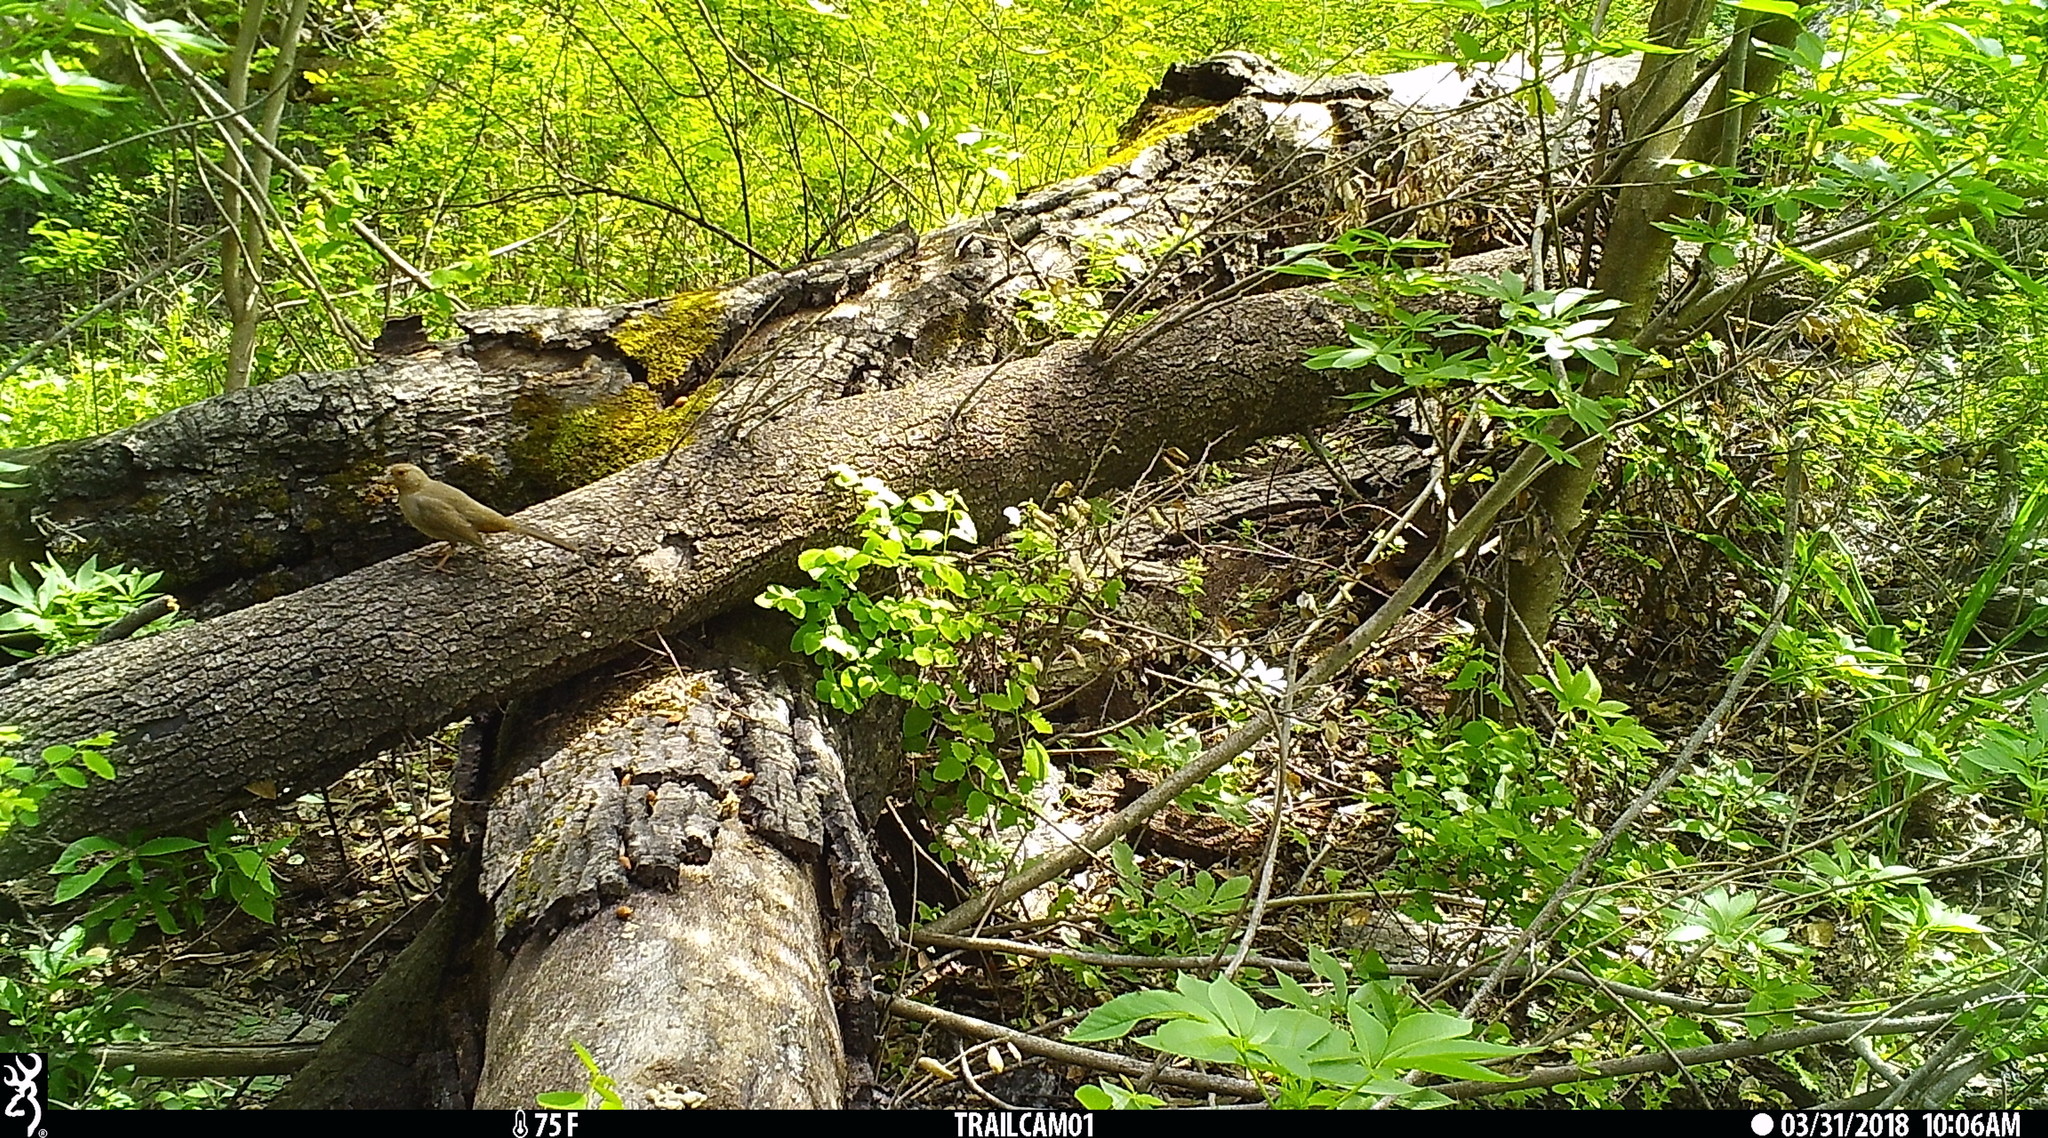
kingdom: Animalia
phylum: Chordata
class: Aves
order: Passeriformes
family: Passerellidae
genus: Melozone
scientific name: Melozone crissalis
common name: California towhee
